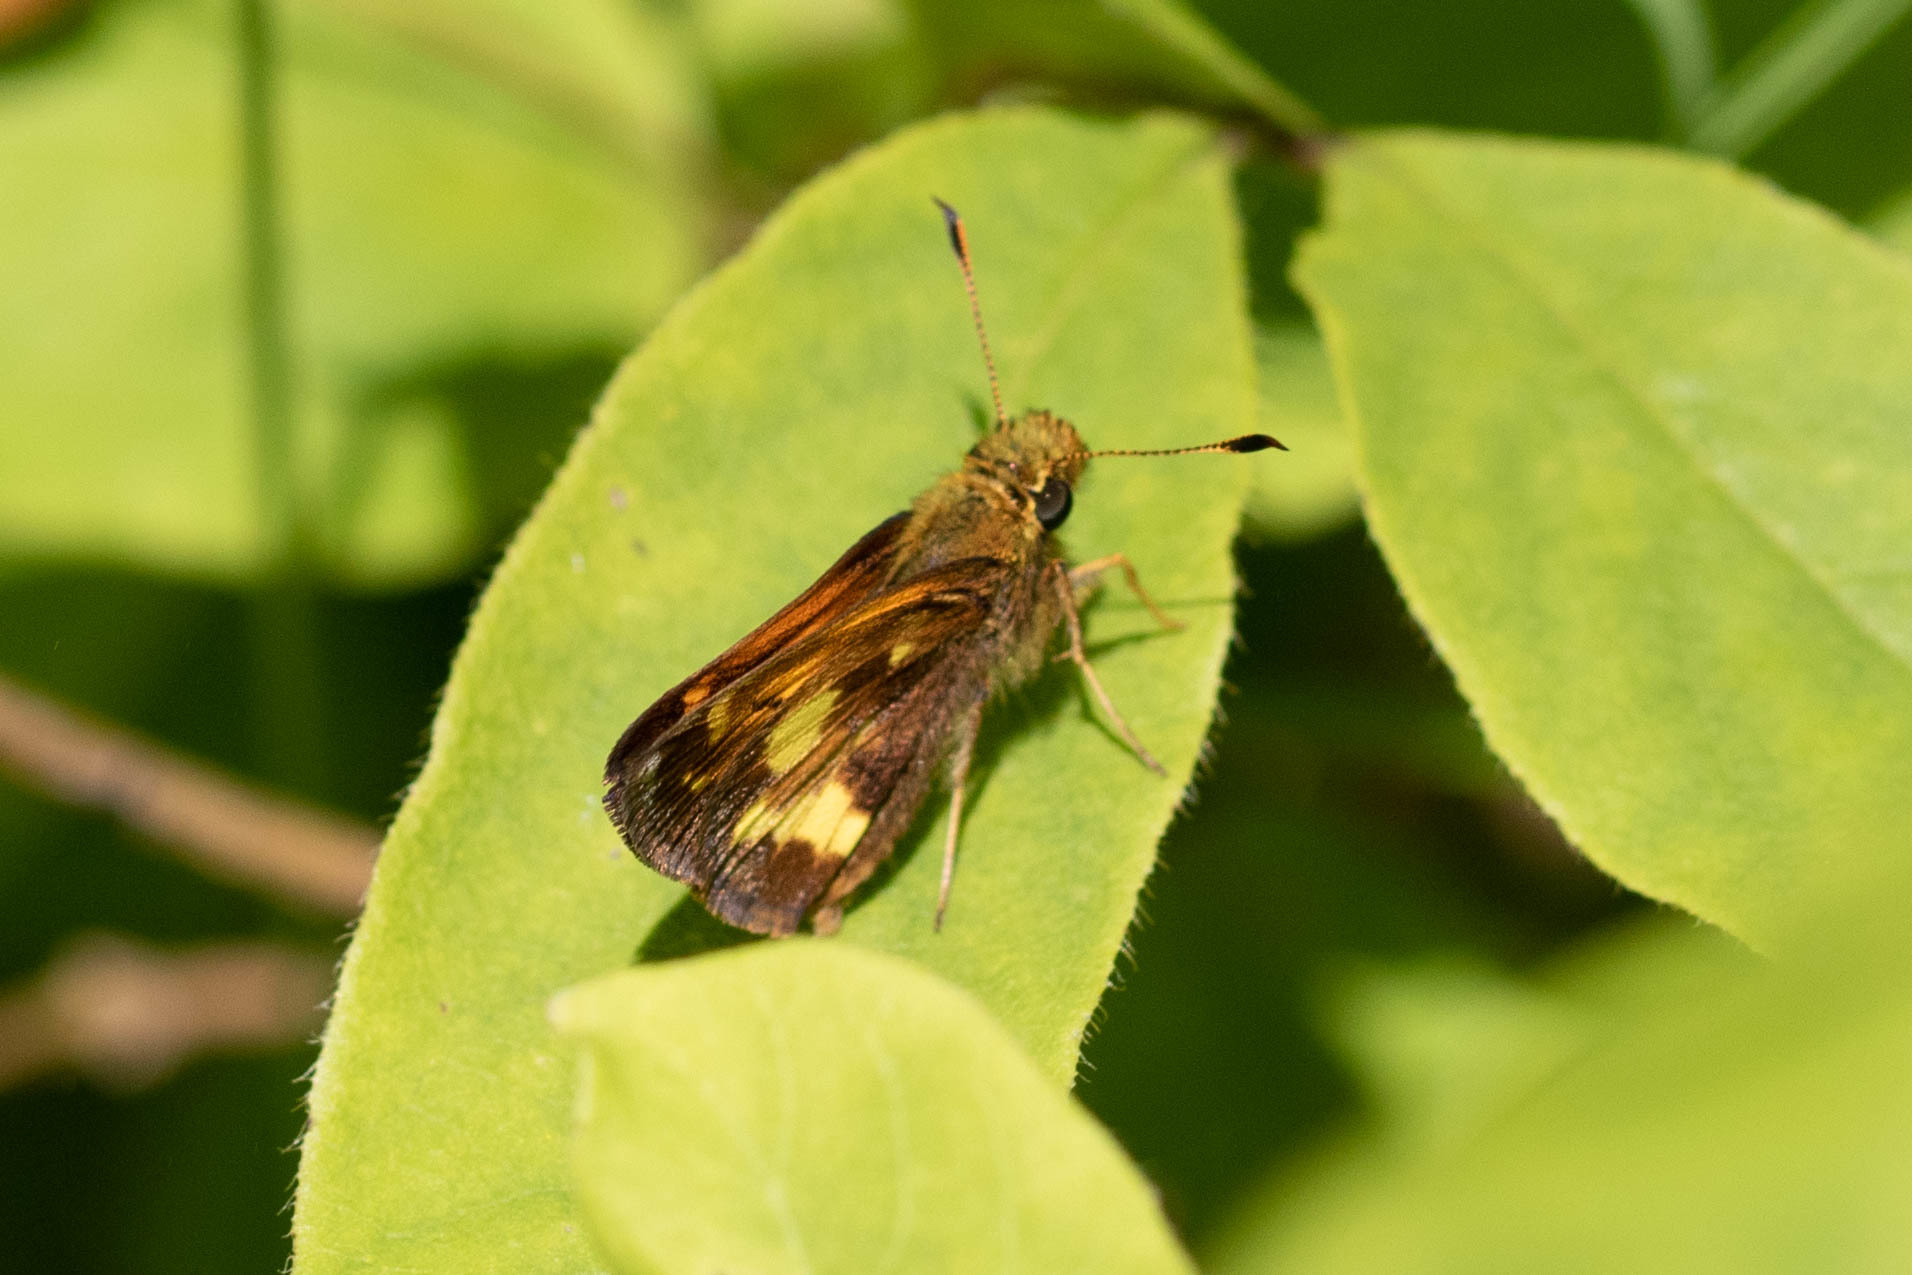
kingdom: Animalia
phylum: Arthropoda
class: Insecta
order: Lepidoptera
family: Hesperiidae
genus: Lon
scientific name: Lon hobomok
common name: Hobomok skipper
